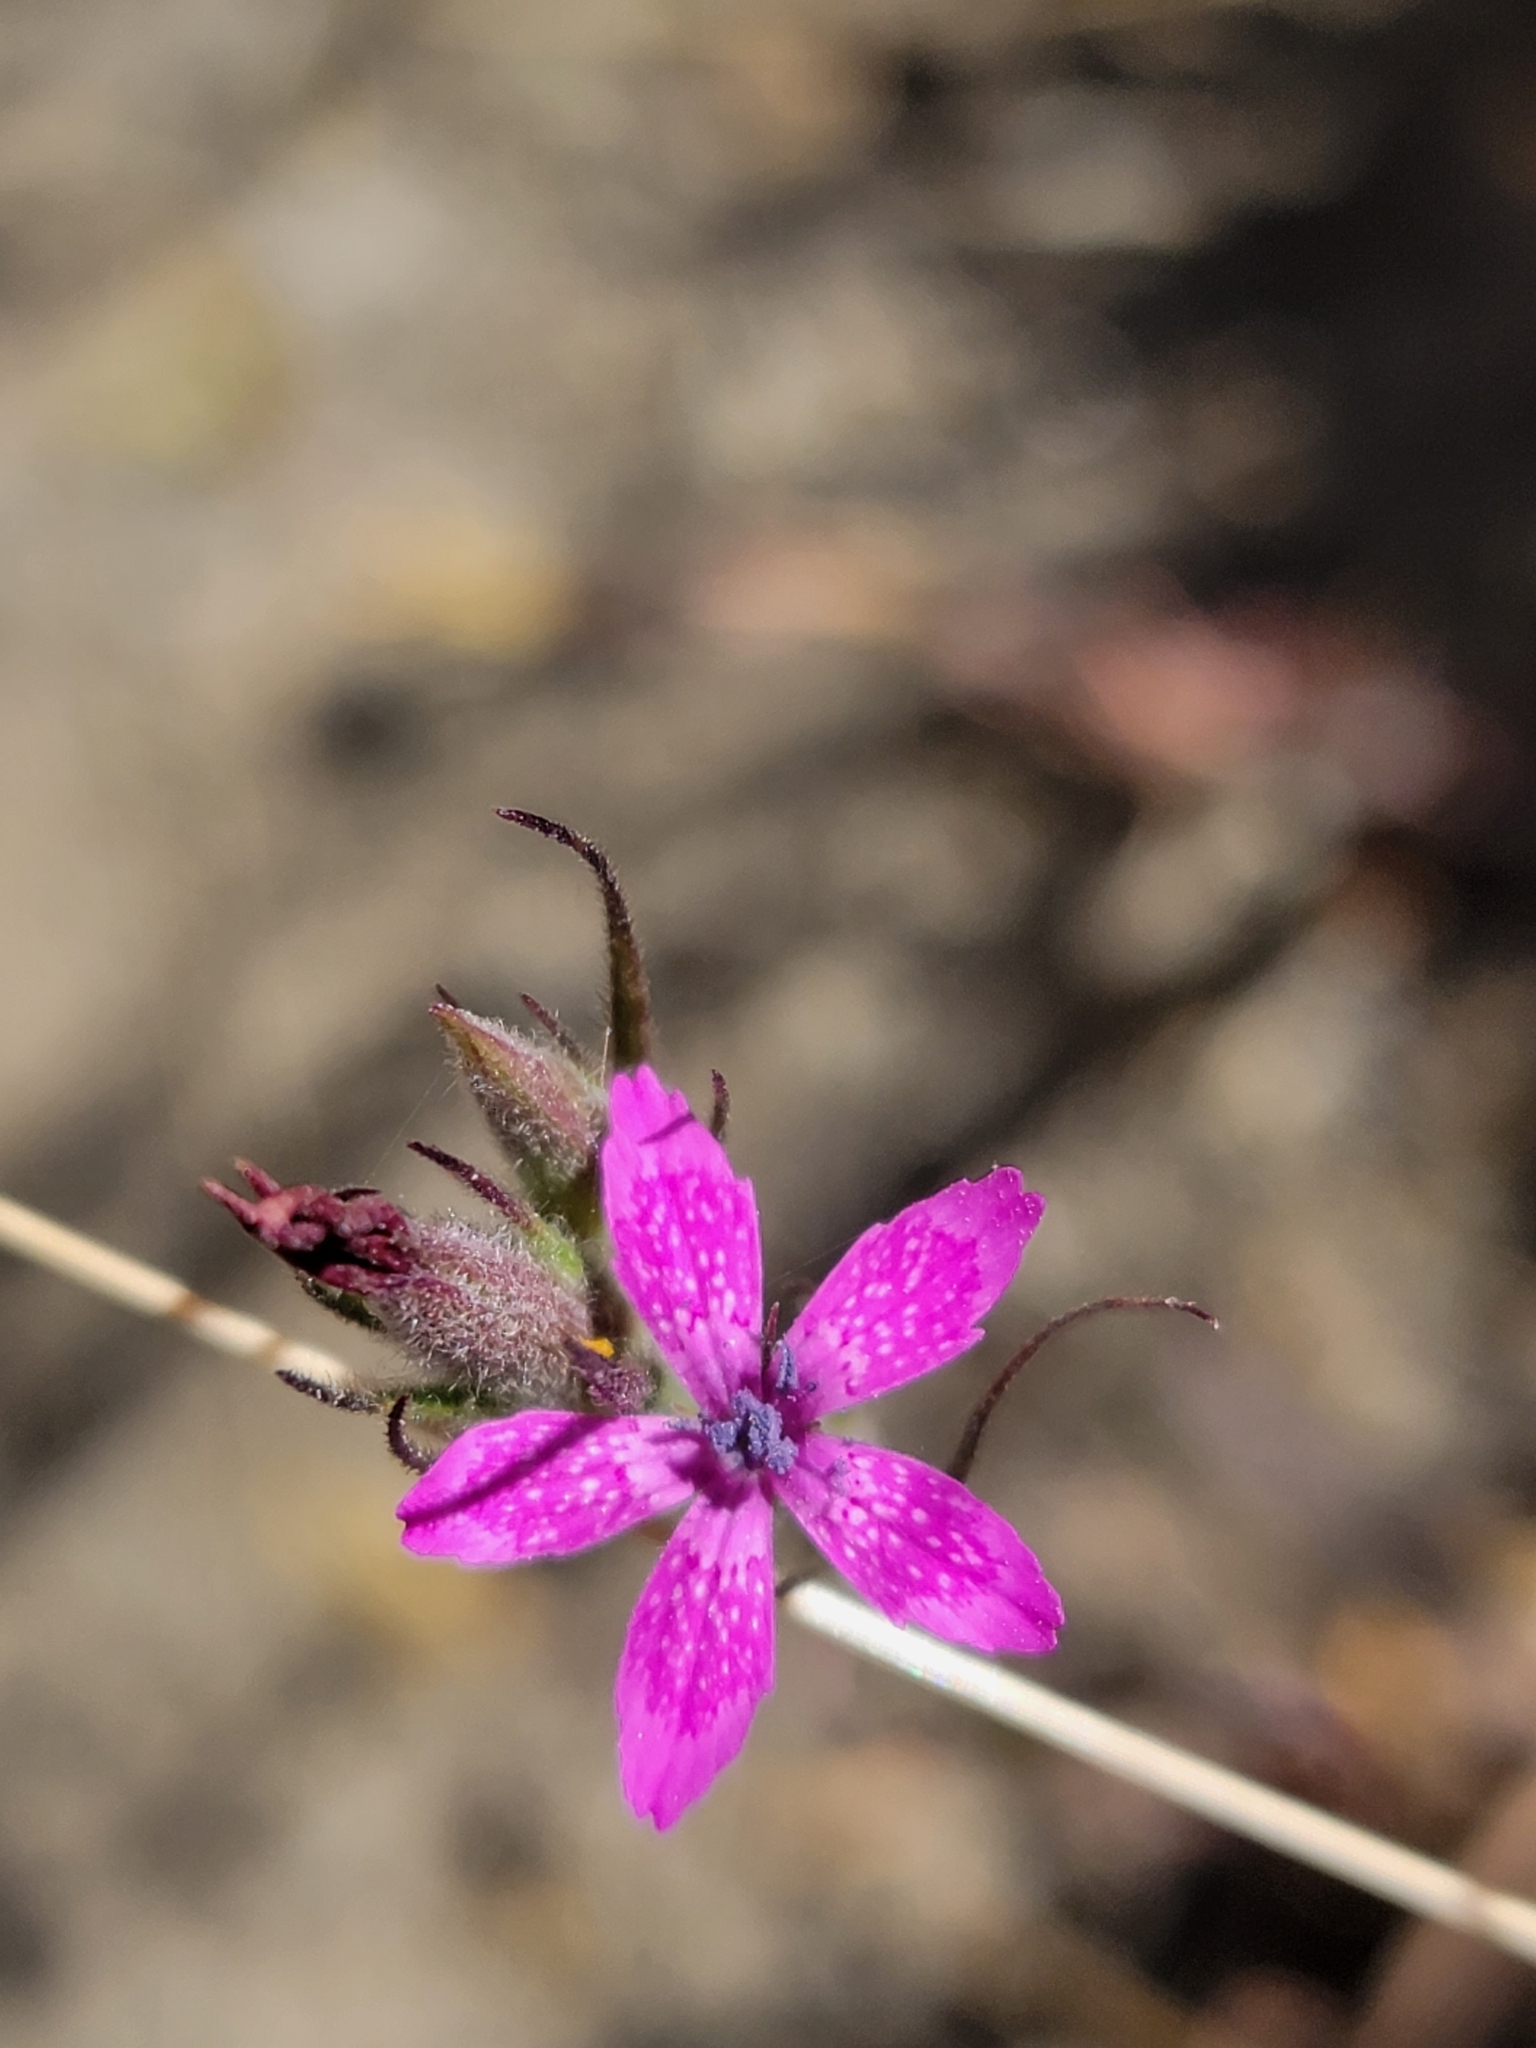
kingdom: Plantae
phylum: Tracheophyta
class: Magnoliopsida
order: Caryophyllales
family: Caryophyllaceae
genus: Dianthus
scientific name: Dianthus armeria
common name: Deptford pink
